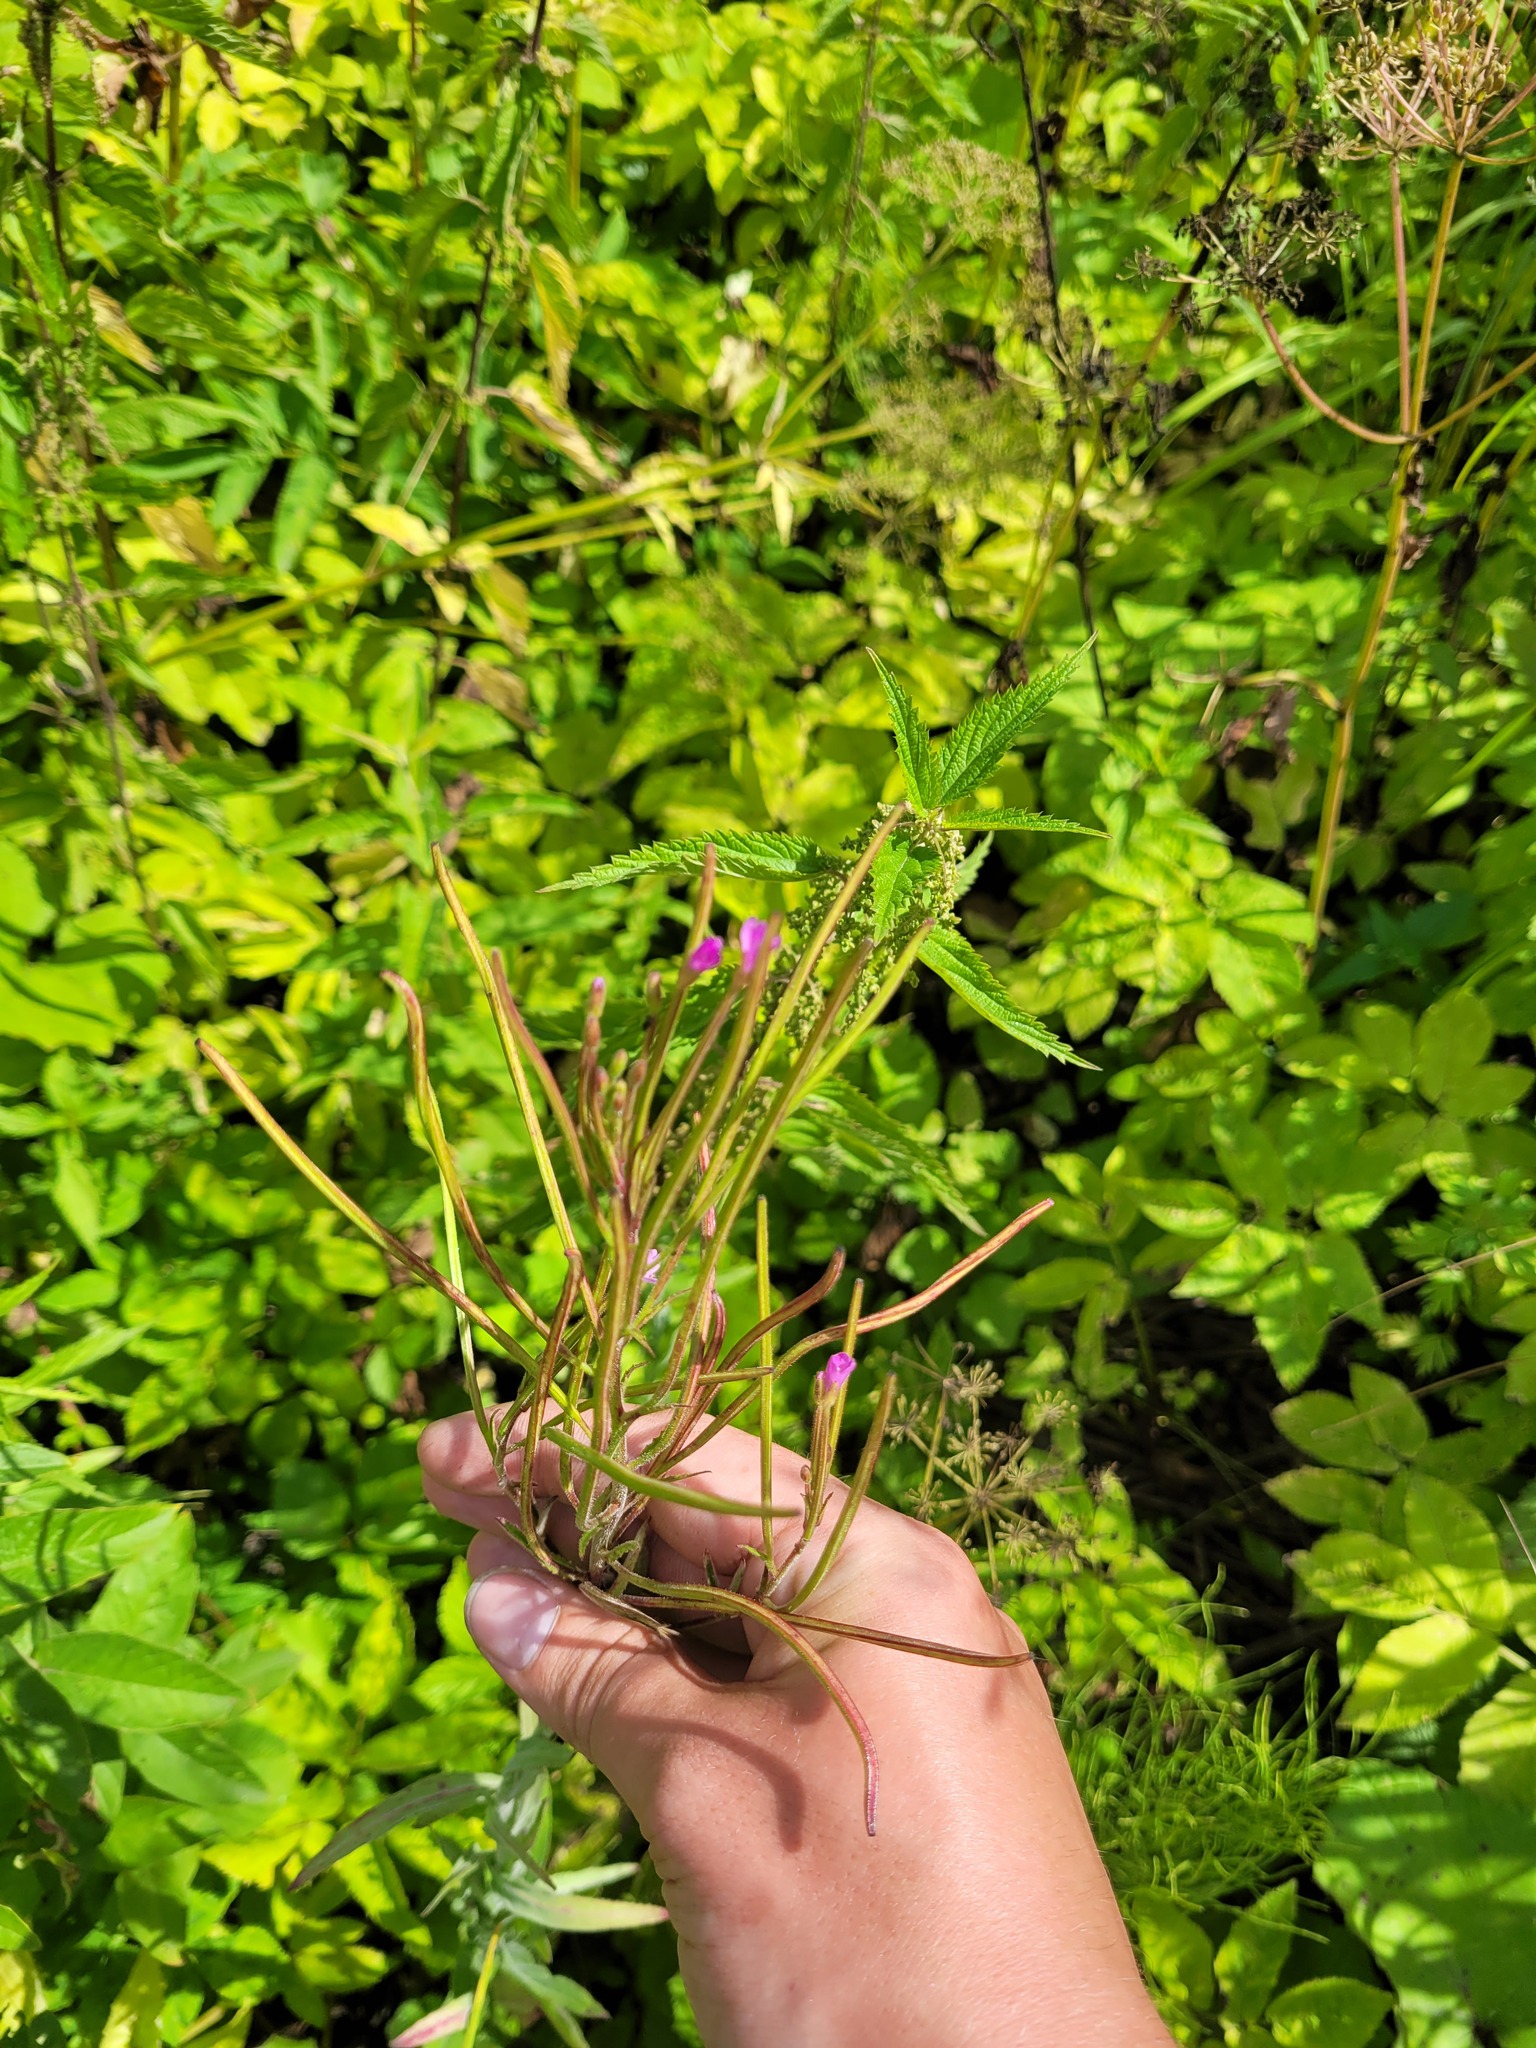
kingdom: Plantae
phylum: Tracheophyta
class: Magnoliopsida
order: Myrtales
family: Onagraceae
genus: Epilobium
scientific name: Epilobium parviflorum
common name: Hoary willowherb
